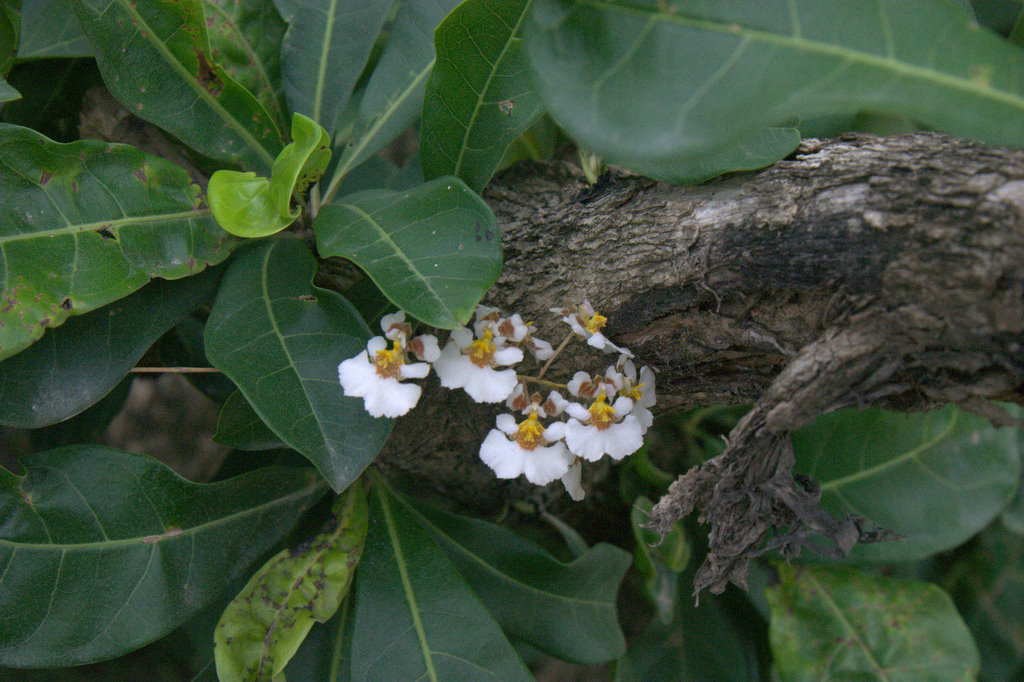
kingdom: Plantae
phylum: Tracheophyta
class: Liliopsida
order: Asparagales
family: Orchidaceae
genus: Tolumnia
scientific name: Tolumnia variegata
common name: Harlequin dancing-lady orchid
